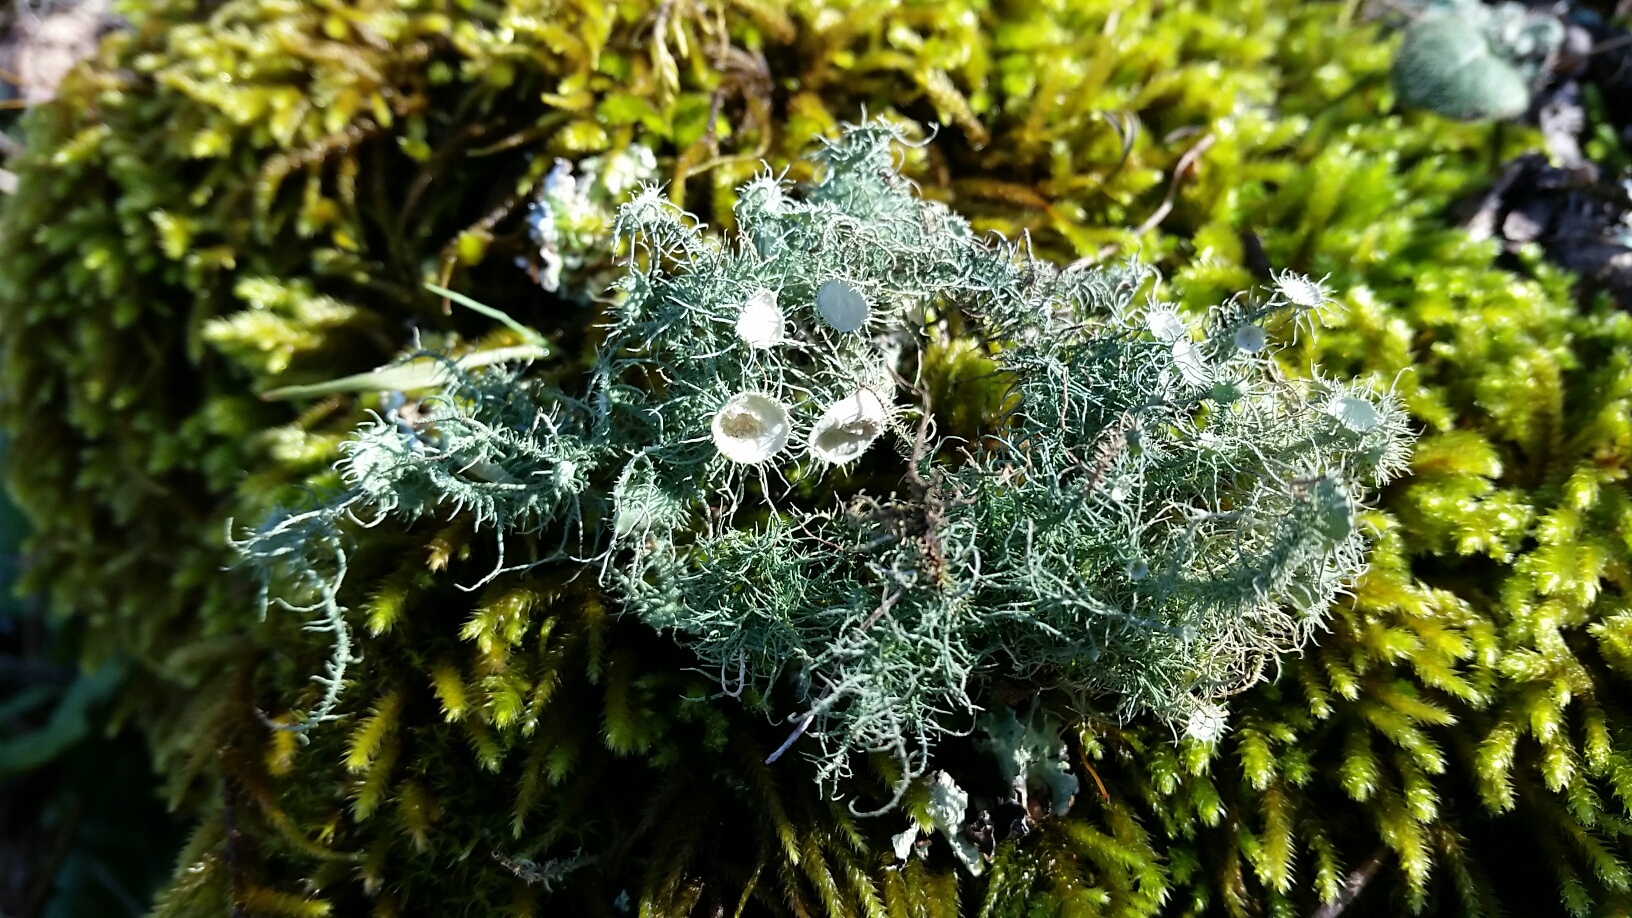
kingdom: Fungi
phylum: Ascomycota
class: Lecanoromycetes
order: Lecanorales
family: Parmeliaceae
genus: Usnea
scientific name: Usnea intermedia
